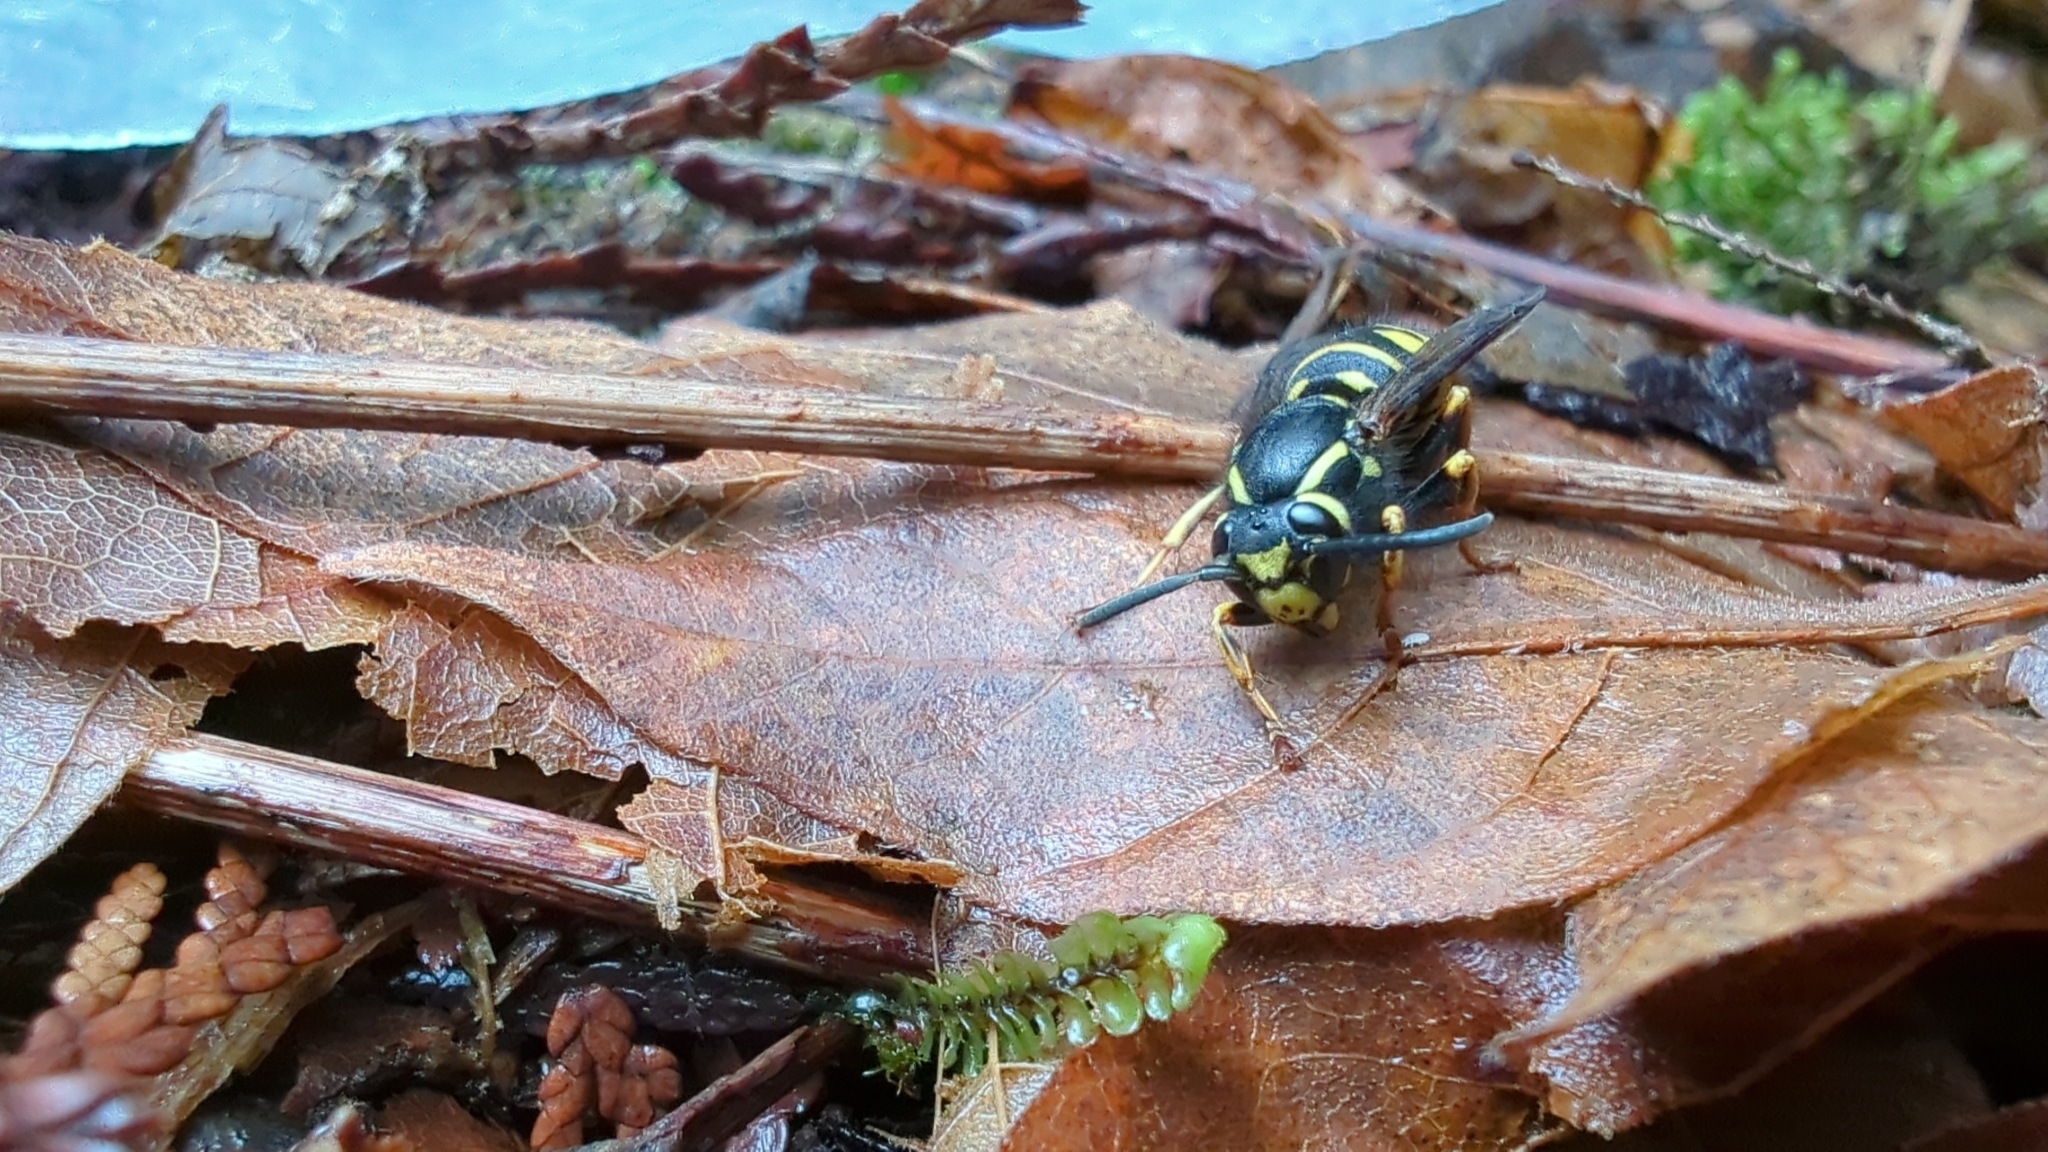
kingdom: Animalia
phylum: Arthropoda
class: Insecta
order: Hymenoptera
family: Vespidae
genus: Vespula
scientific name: Vespula infernalis
